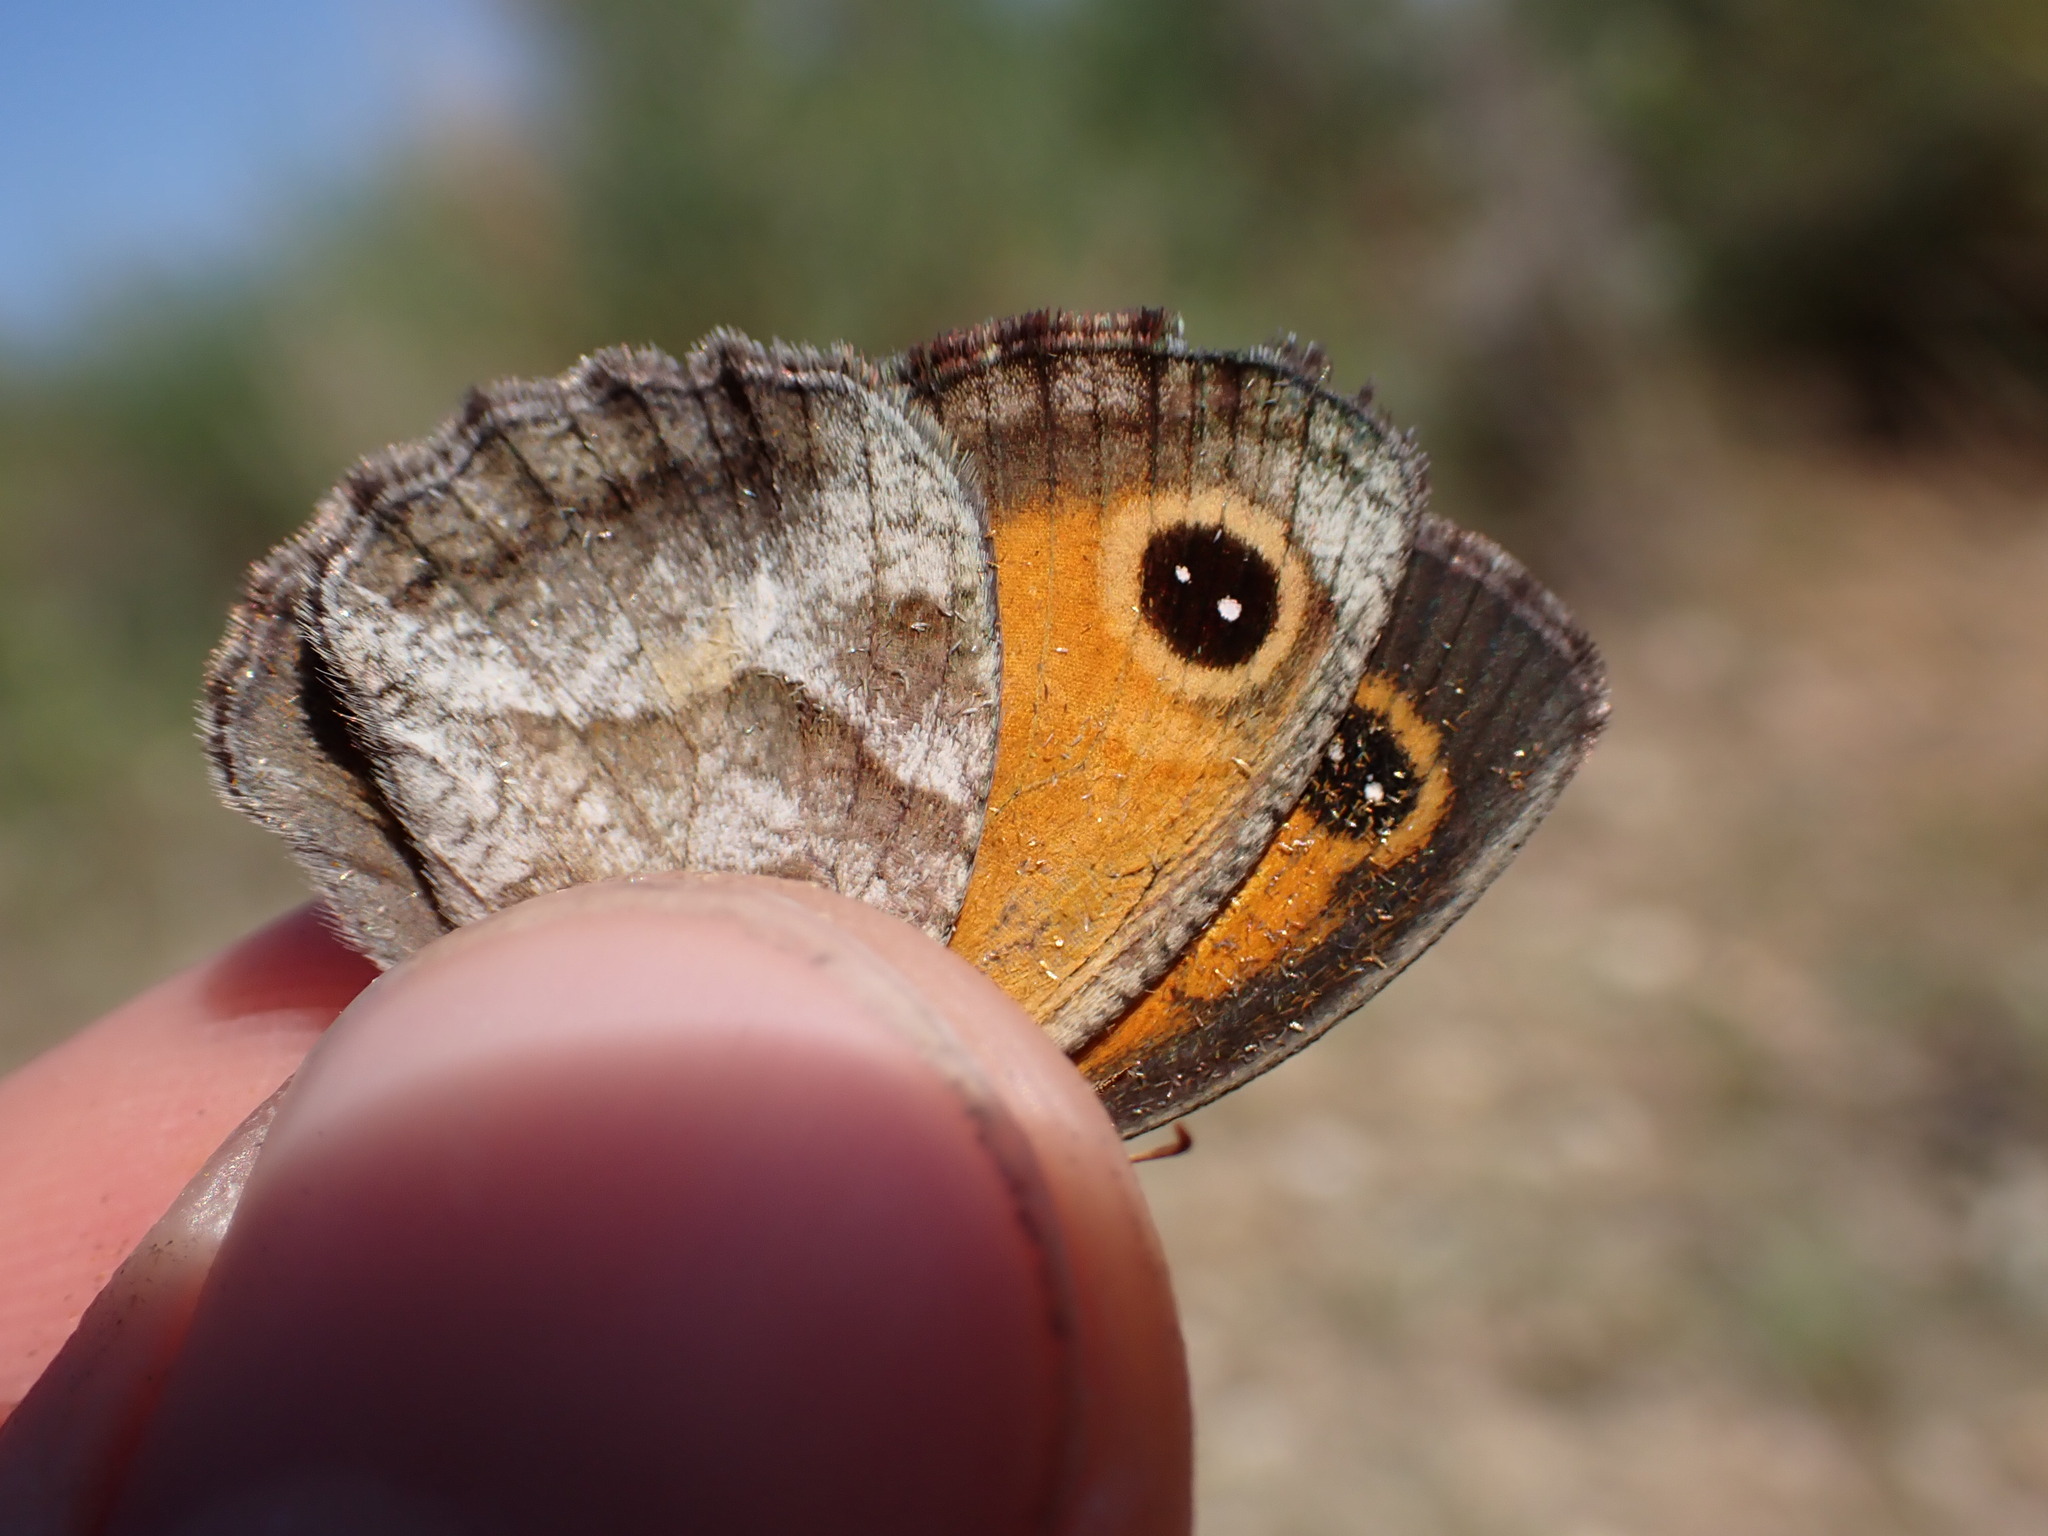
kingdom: Animalia
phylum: Arthropoda
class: Insecta
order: Lepidoptera
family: Nymphalidae
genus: Pyronia
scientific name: Pyronia cecilia
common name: Southern gatekeeper
